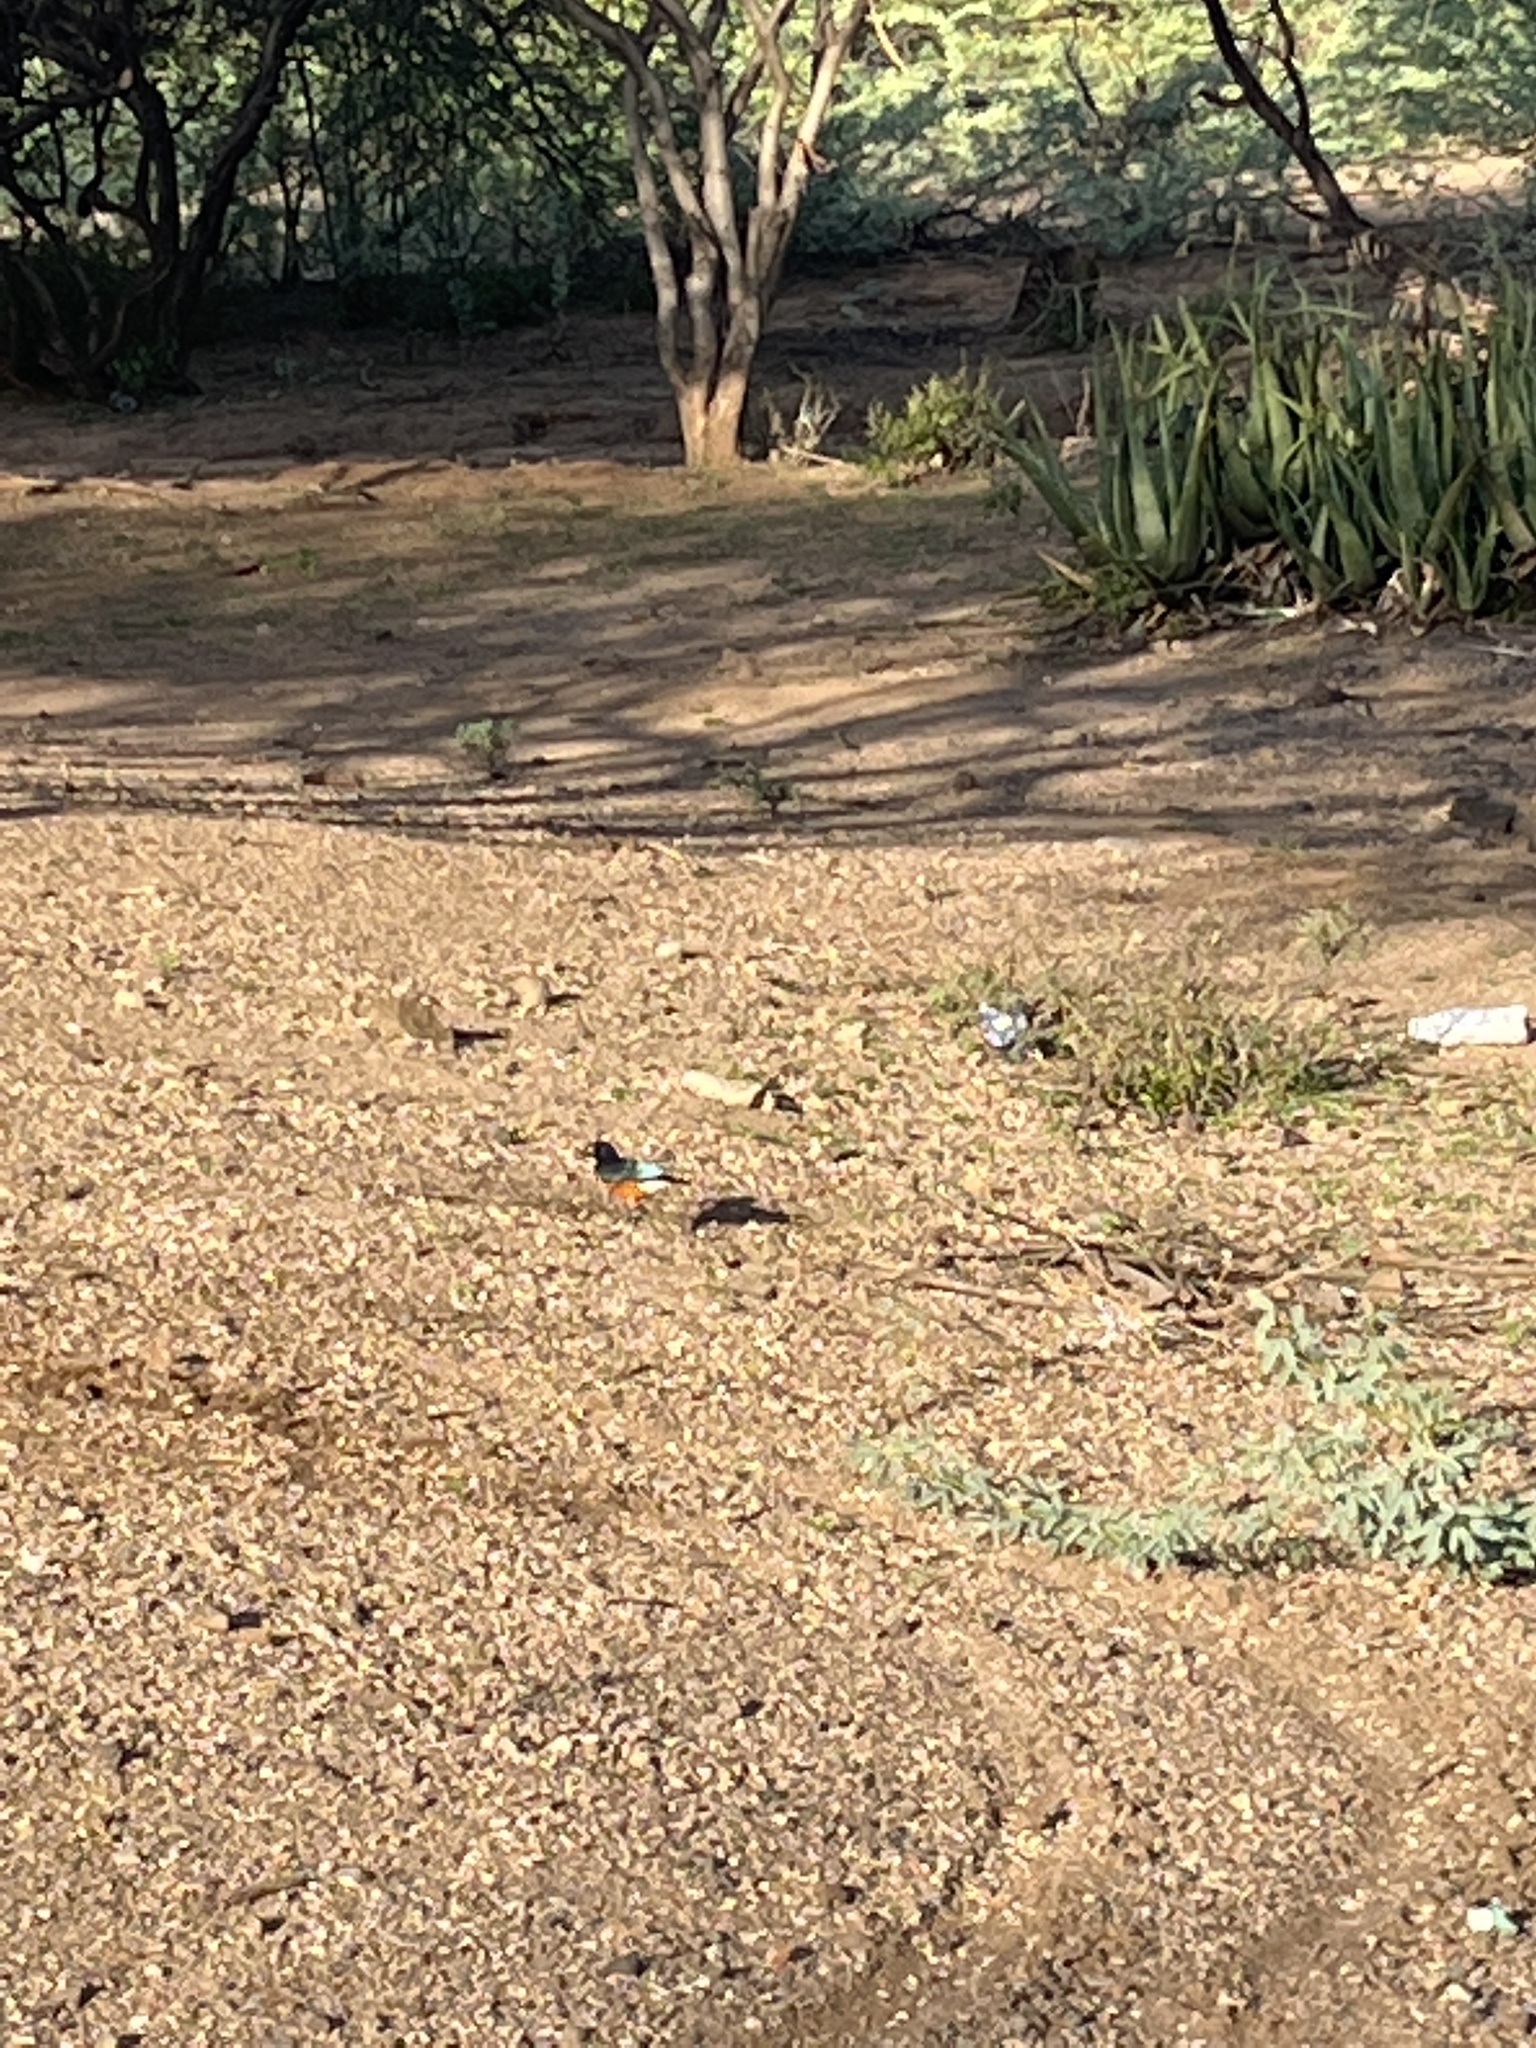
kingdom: Animalia
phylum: Chordata
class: Aves
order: Passeriformes
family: Sturnidae
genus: Lamprotornis
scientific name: Lamprotornis superbus
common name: Superb starling
